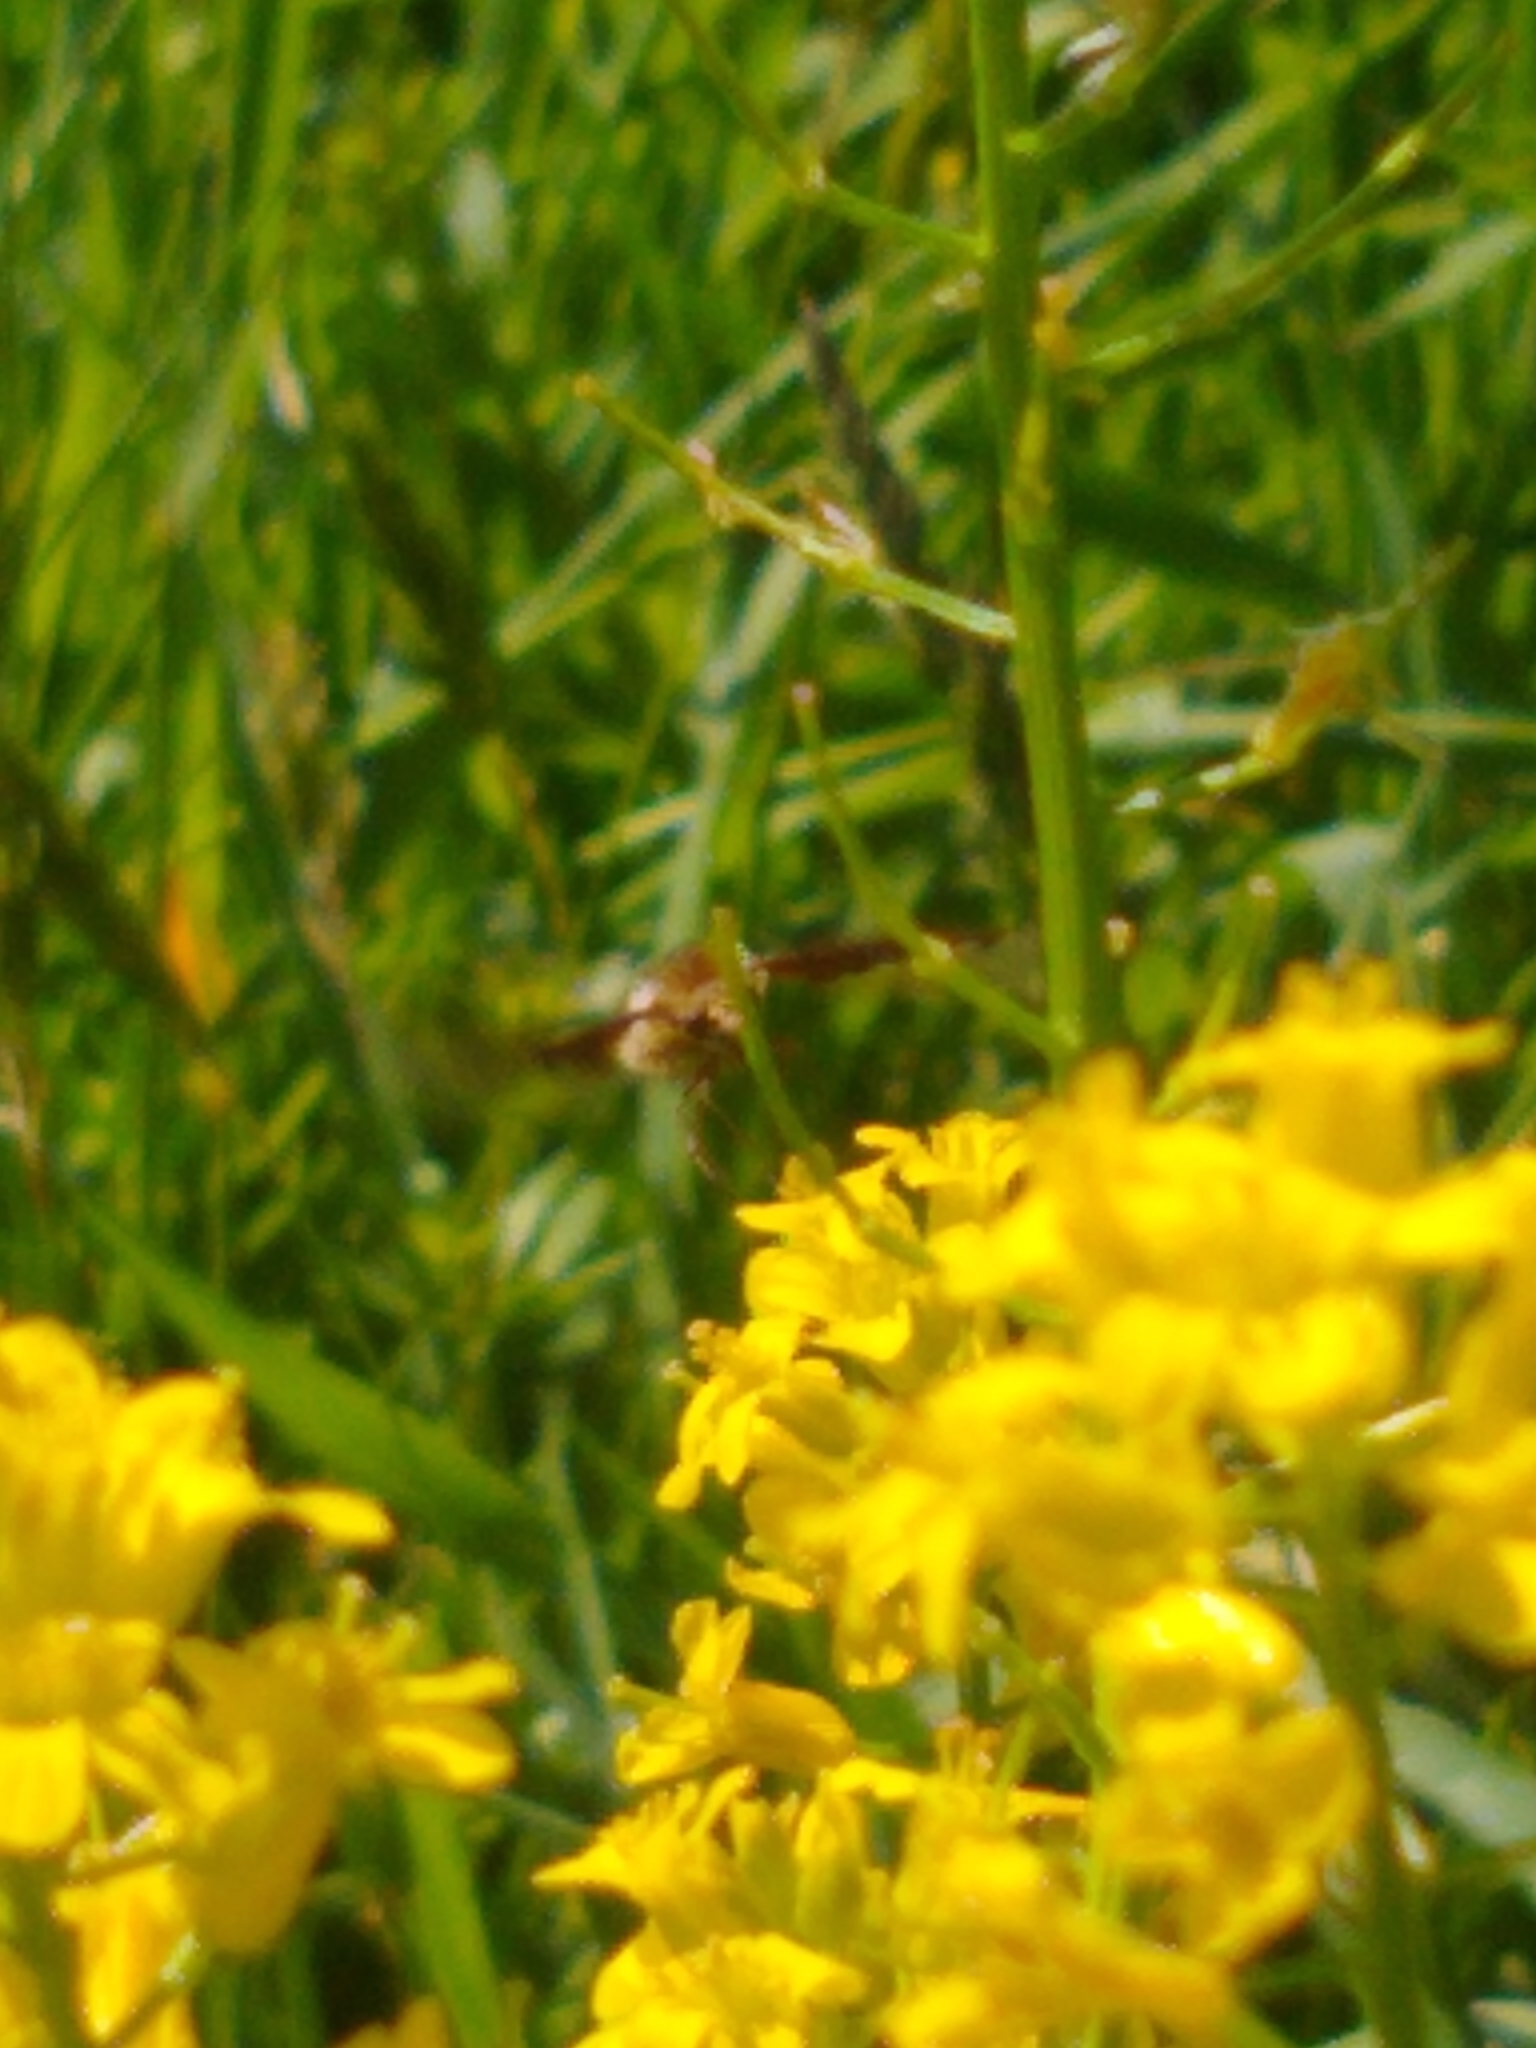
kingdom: Animalia
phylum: Arthropoda
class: Insecta
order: Diptera
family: Bombyliidae
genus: Bombylius
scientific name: Bombylius major
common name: Bee fly
